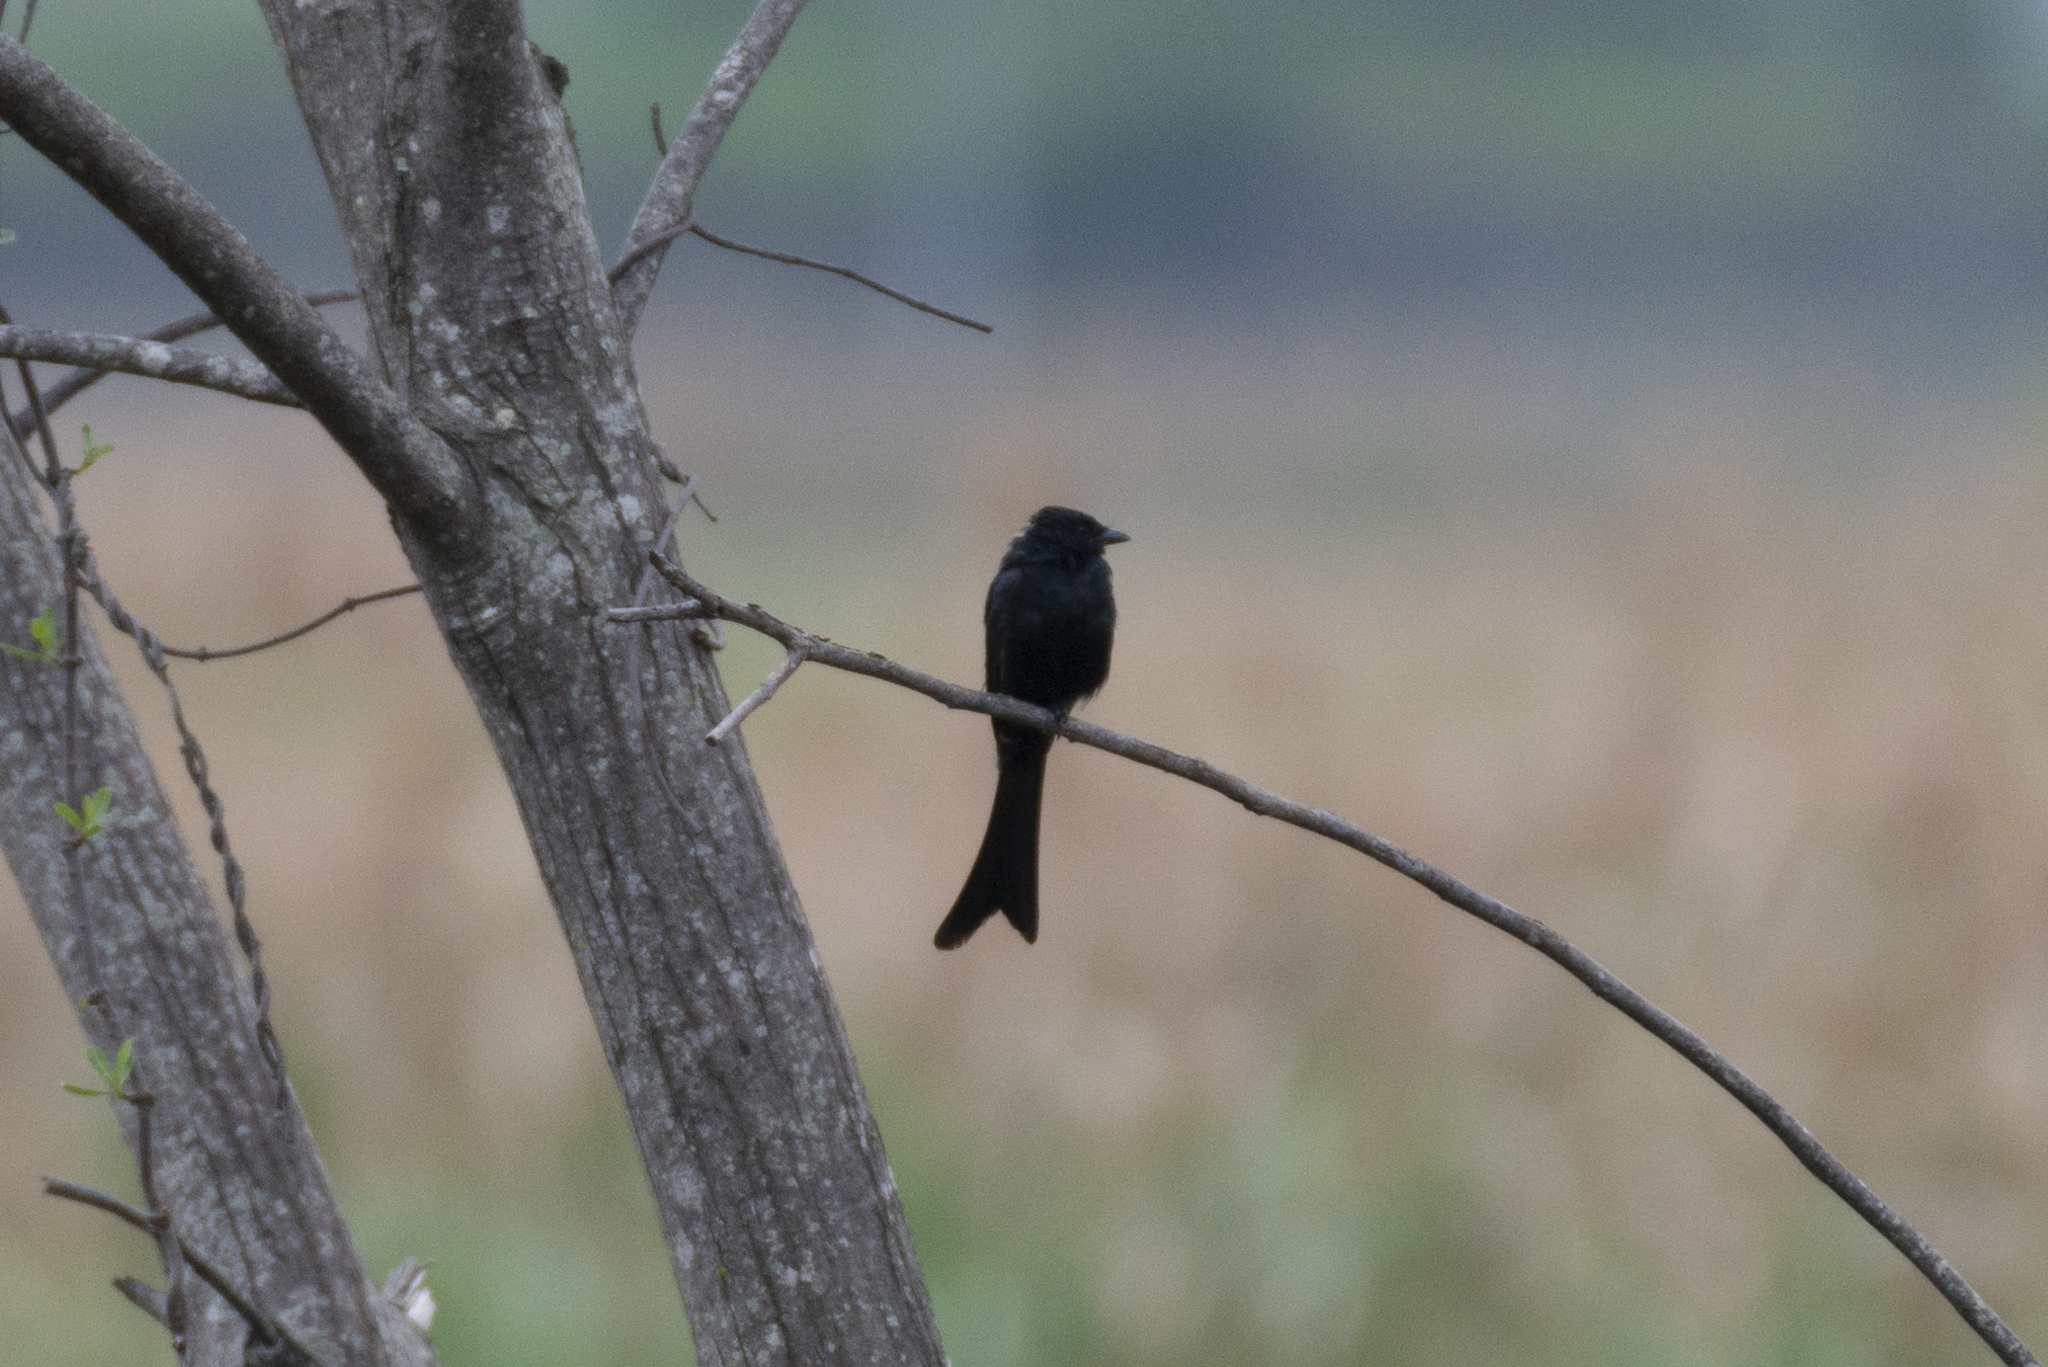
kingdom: Animalia
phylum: Chordata
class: Aves
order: Passeriformes
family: Dicruridae
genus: Dicrurus
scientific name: Dicrurus macrocercus
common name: Black drongo
